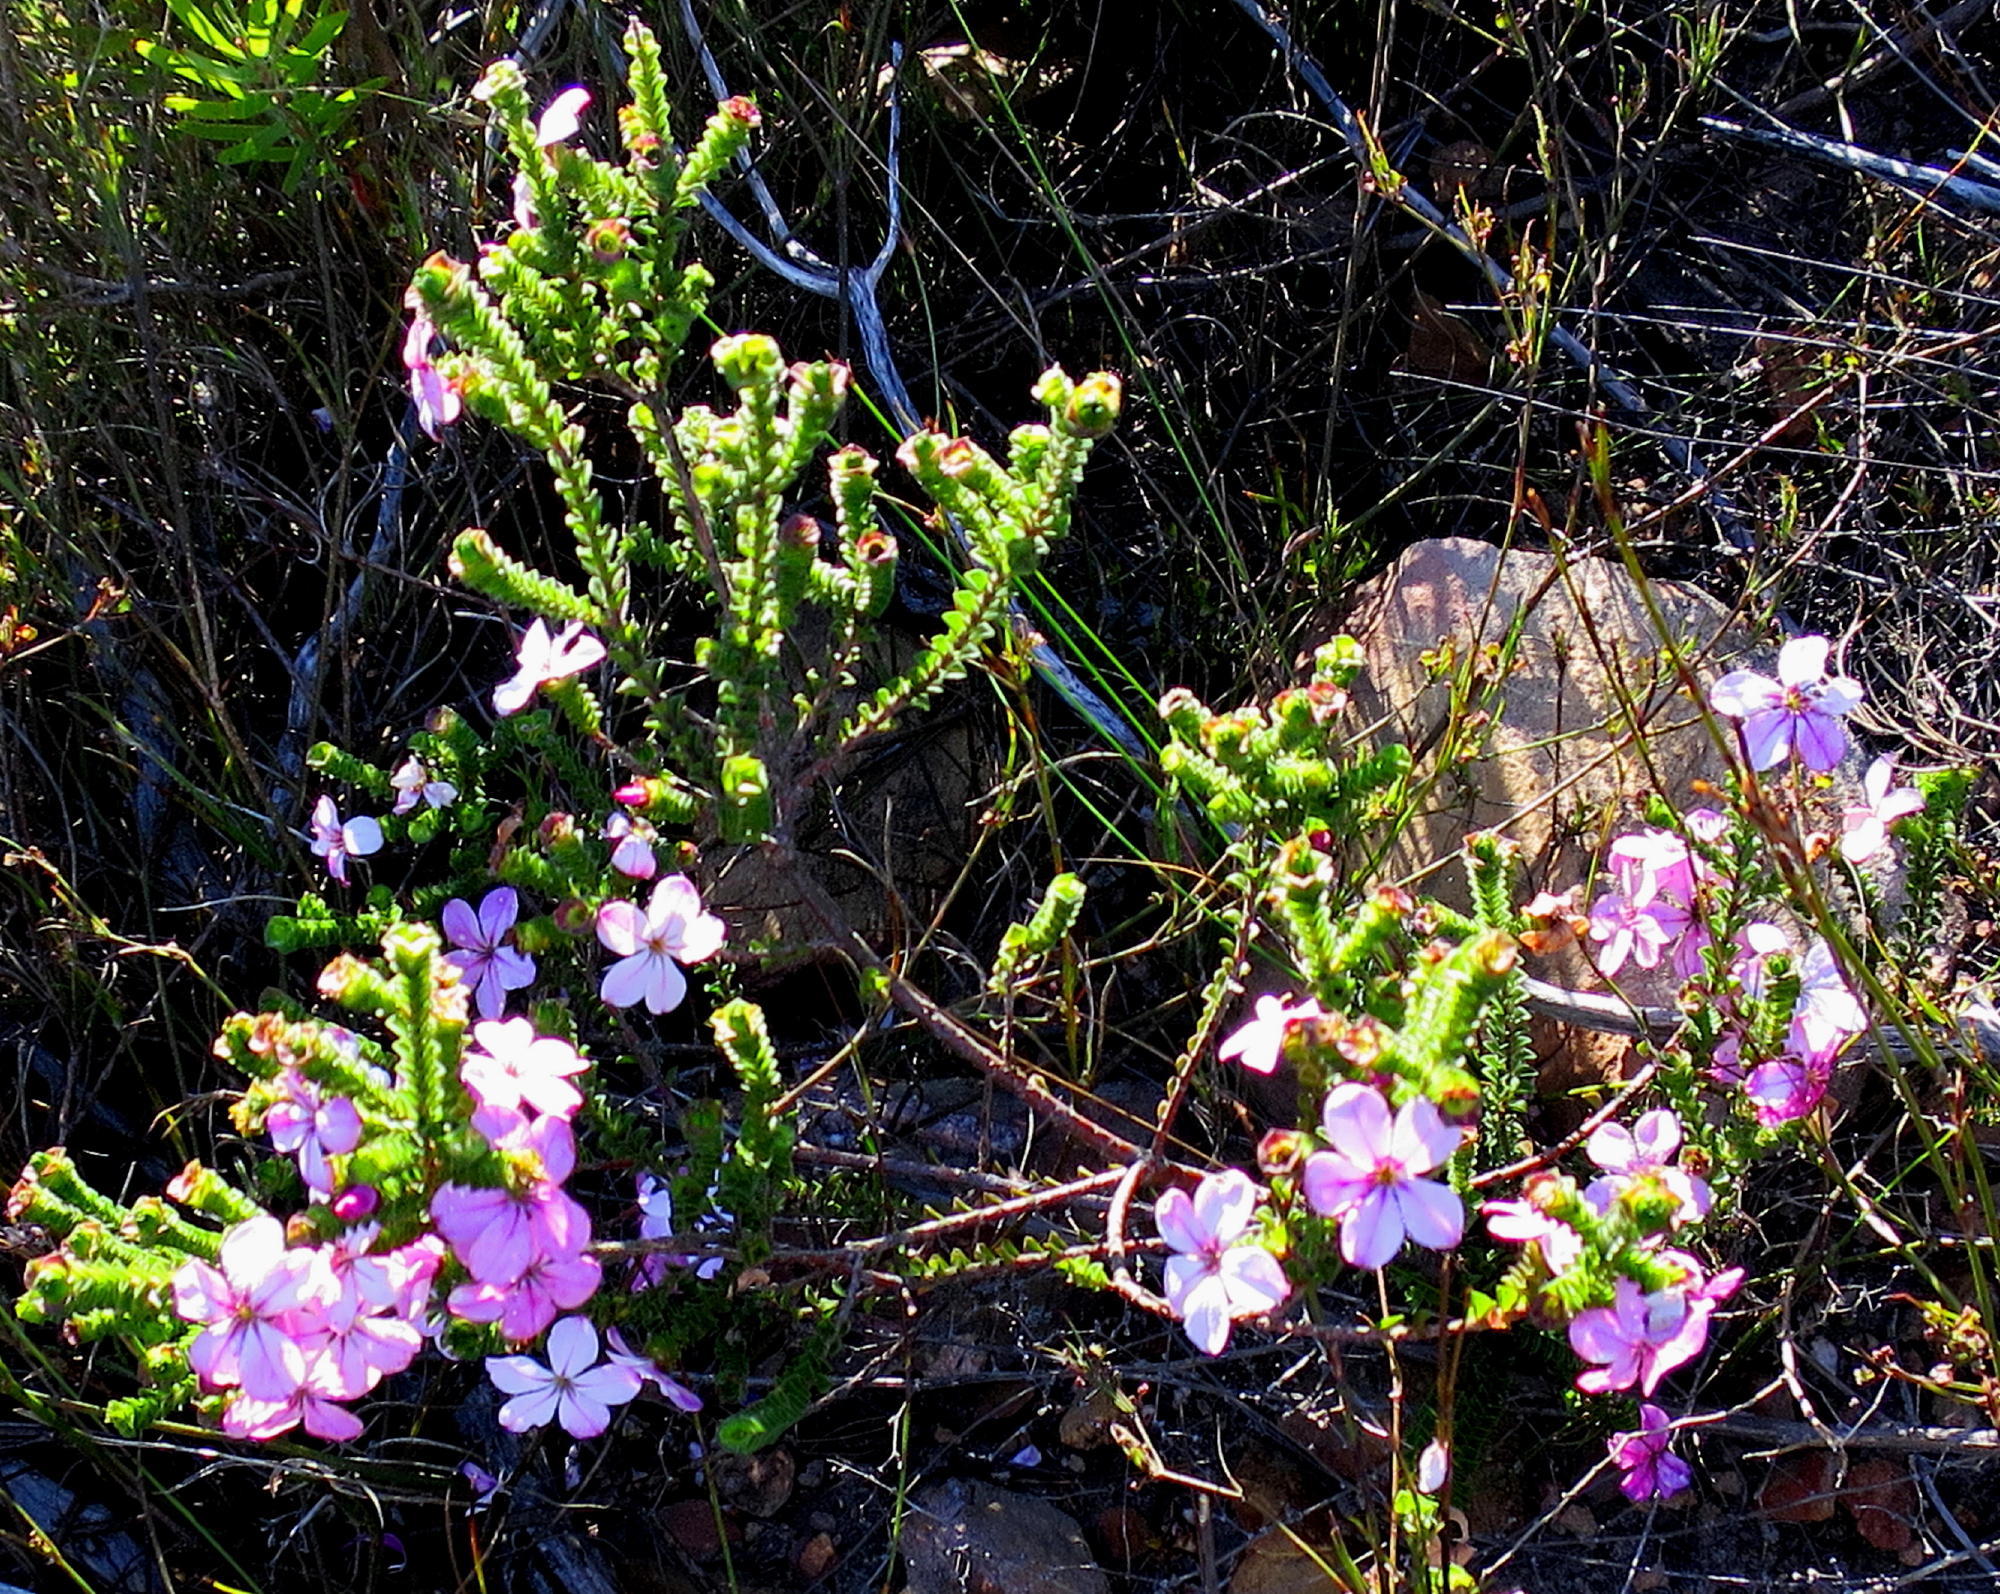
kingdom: Plantae
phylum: Tracheophyta
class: Magnoliopsida
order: Sapindales
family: Rutaceae
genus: Acmadenia
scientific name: Acmadenia tetragona
